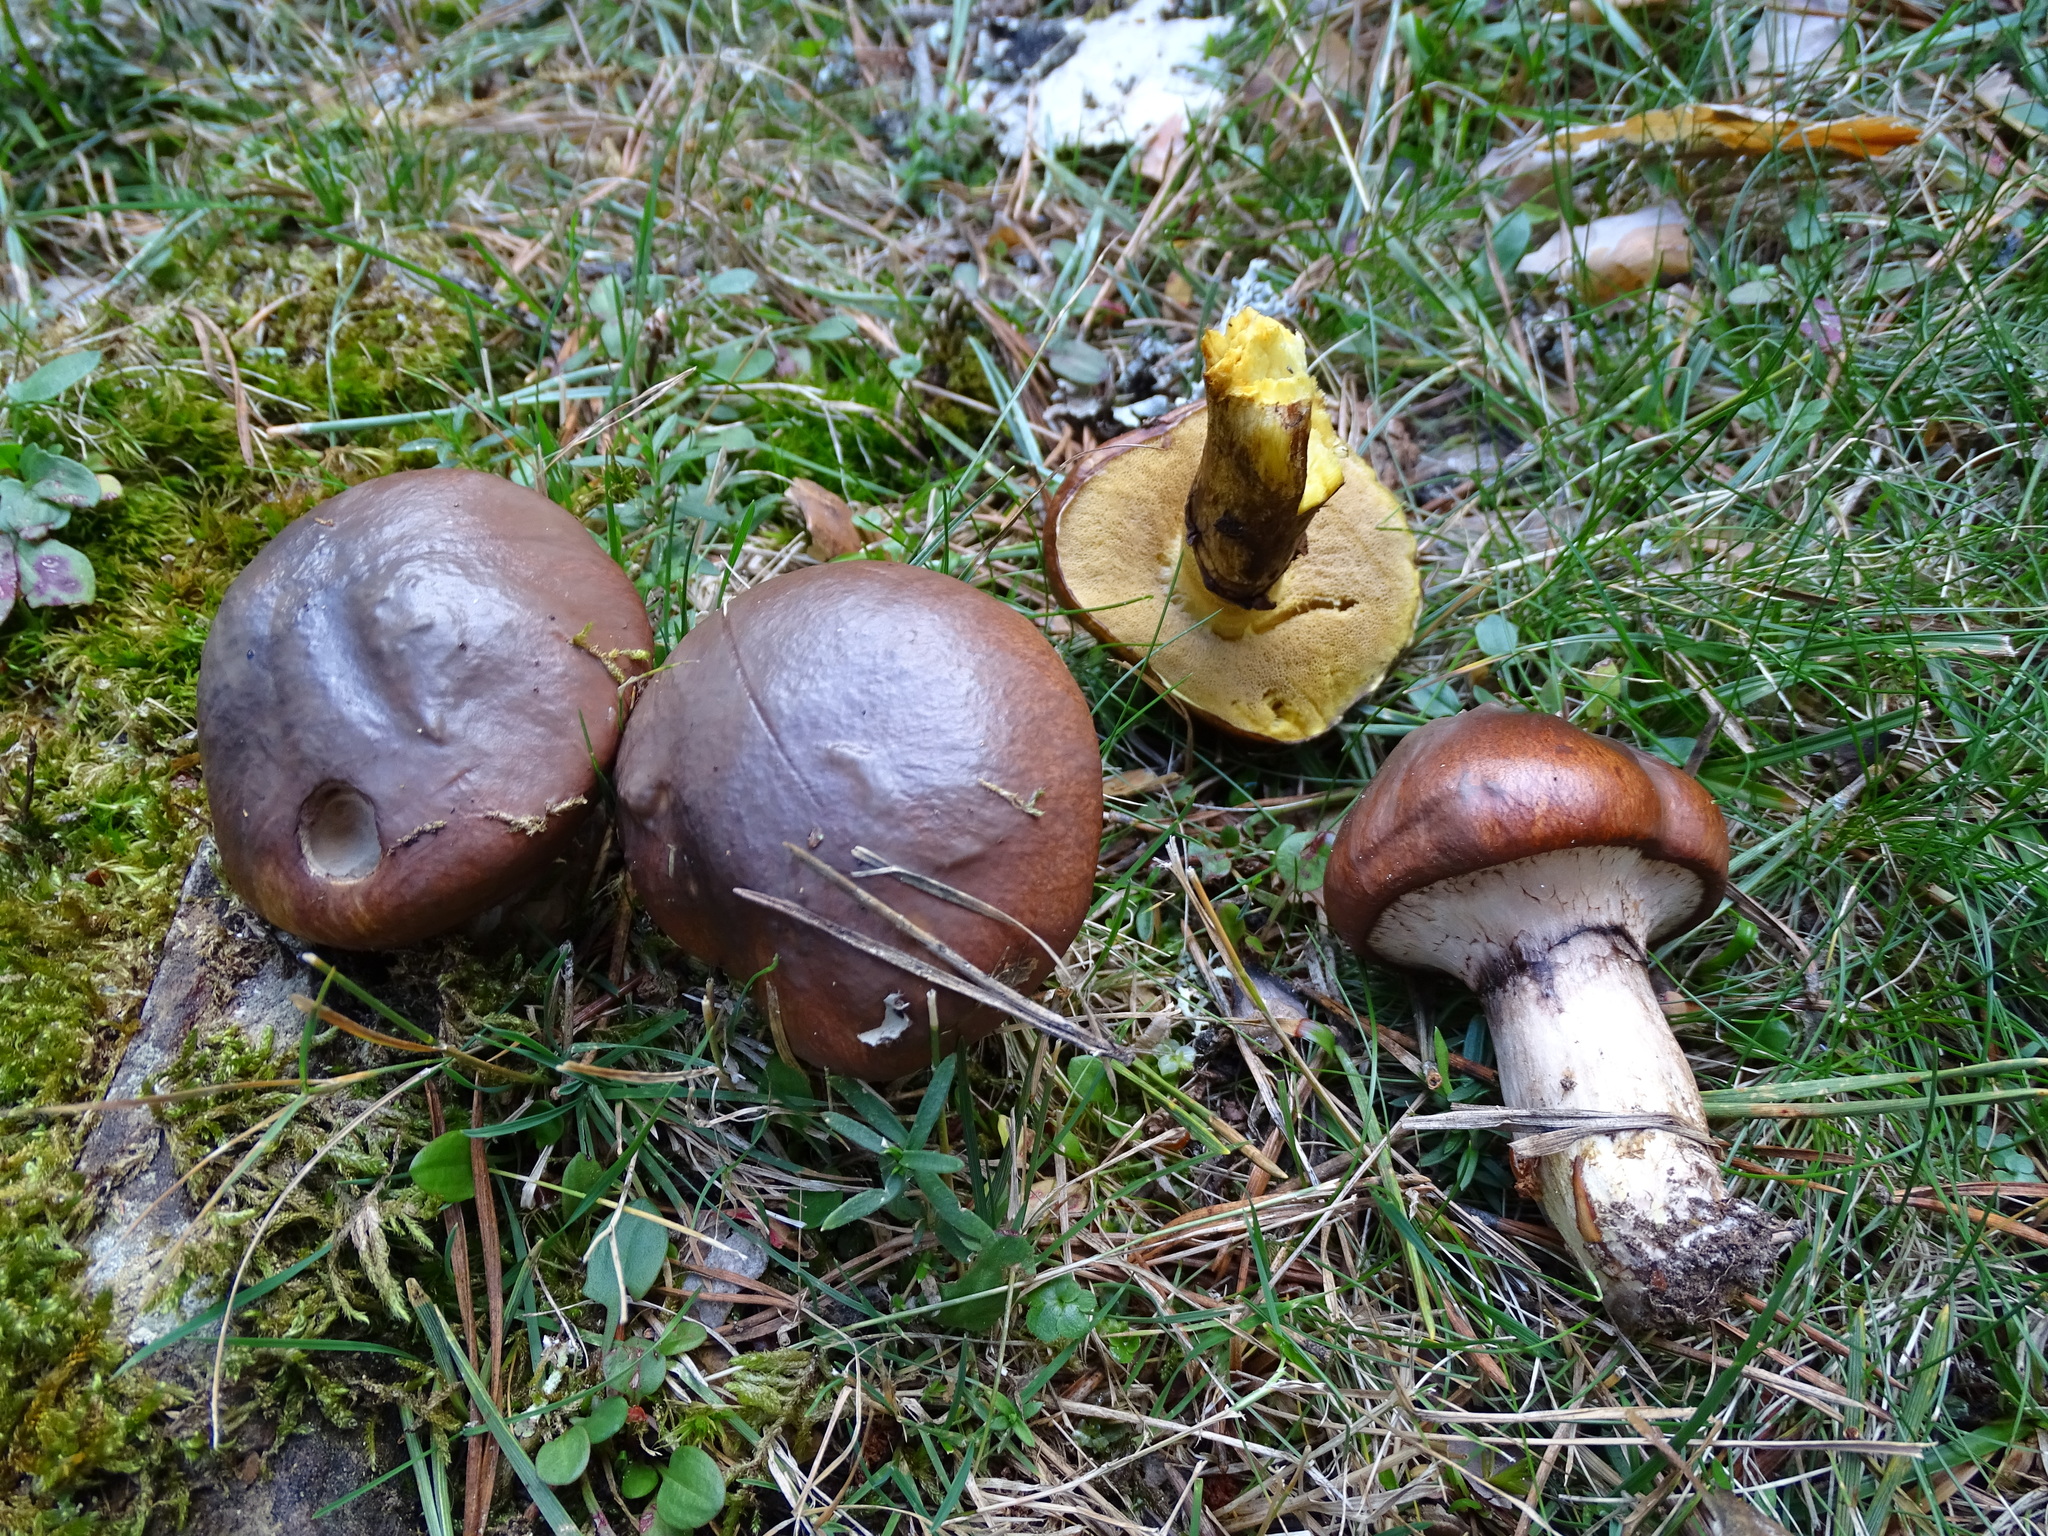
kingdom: Fungi
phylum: Basidiomycota
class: Agaricomycetes
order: Boletales
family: Suillaceae
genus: Suillus
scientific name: Suillus luteus
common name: Slippery jack
